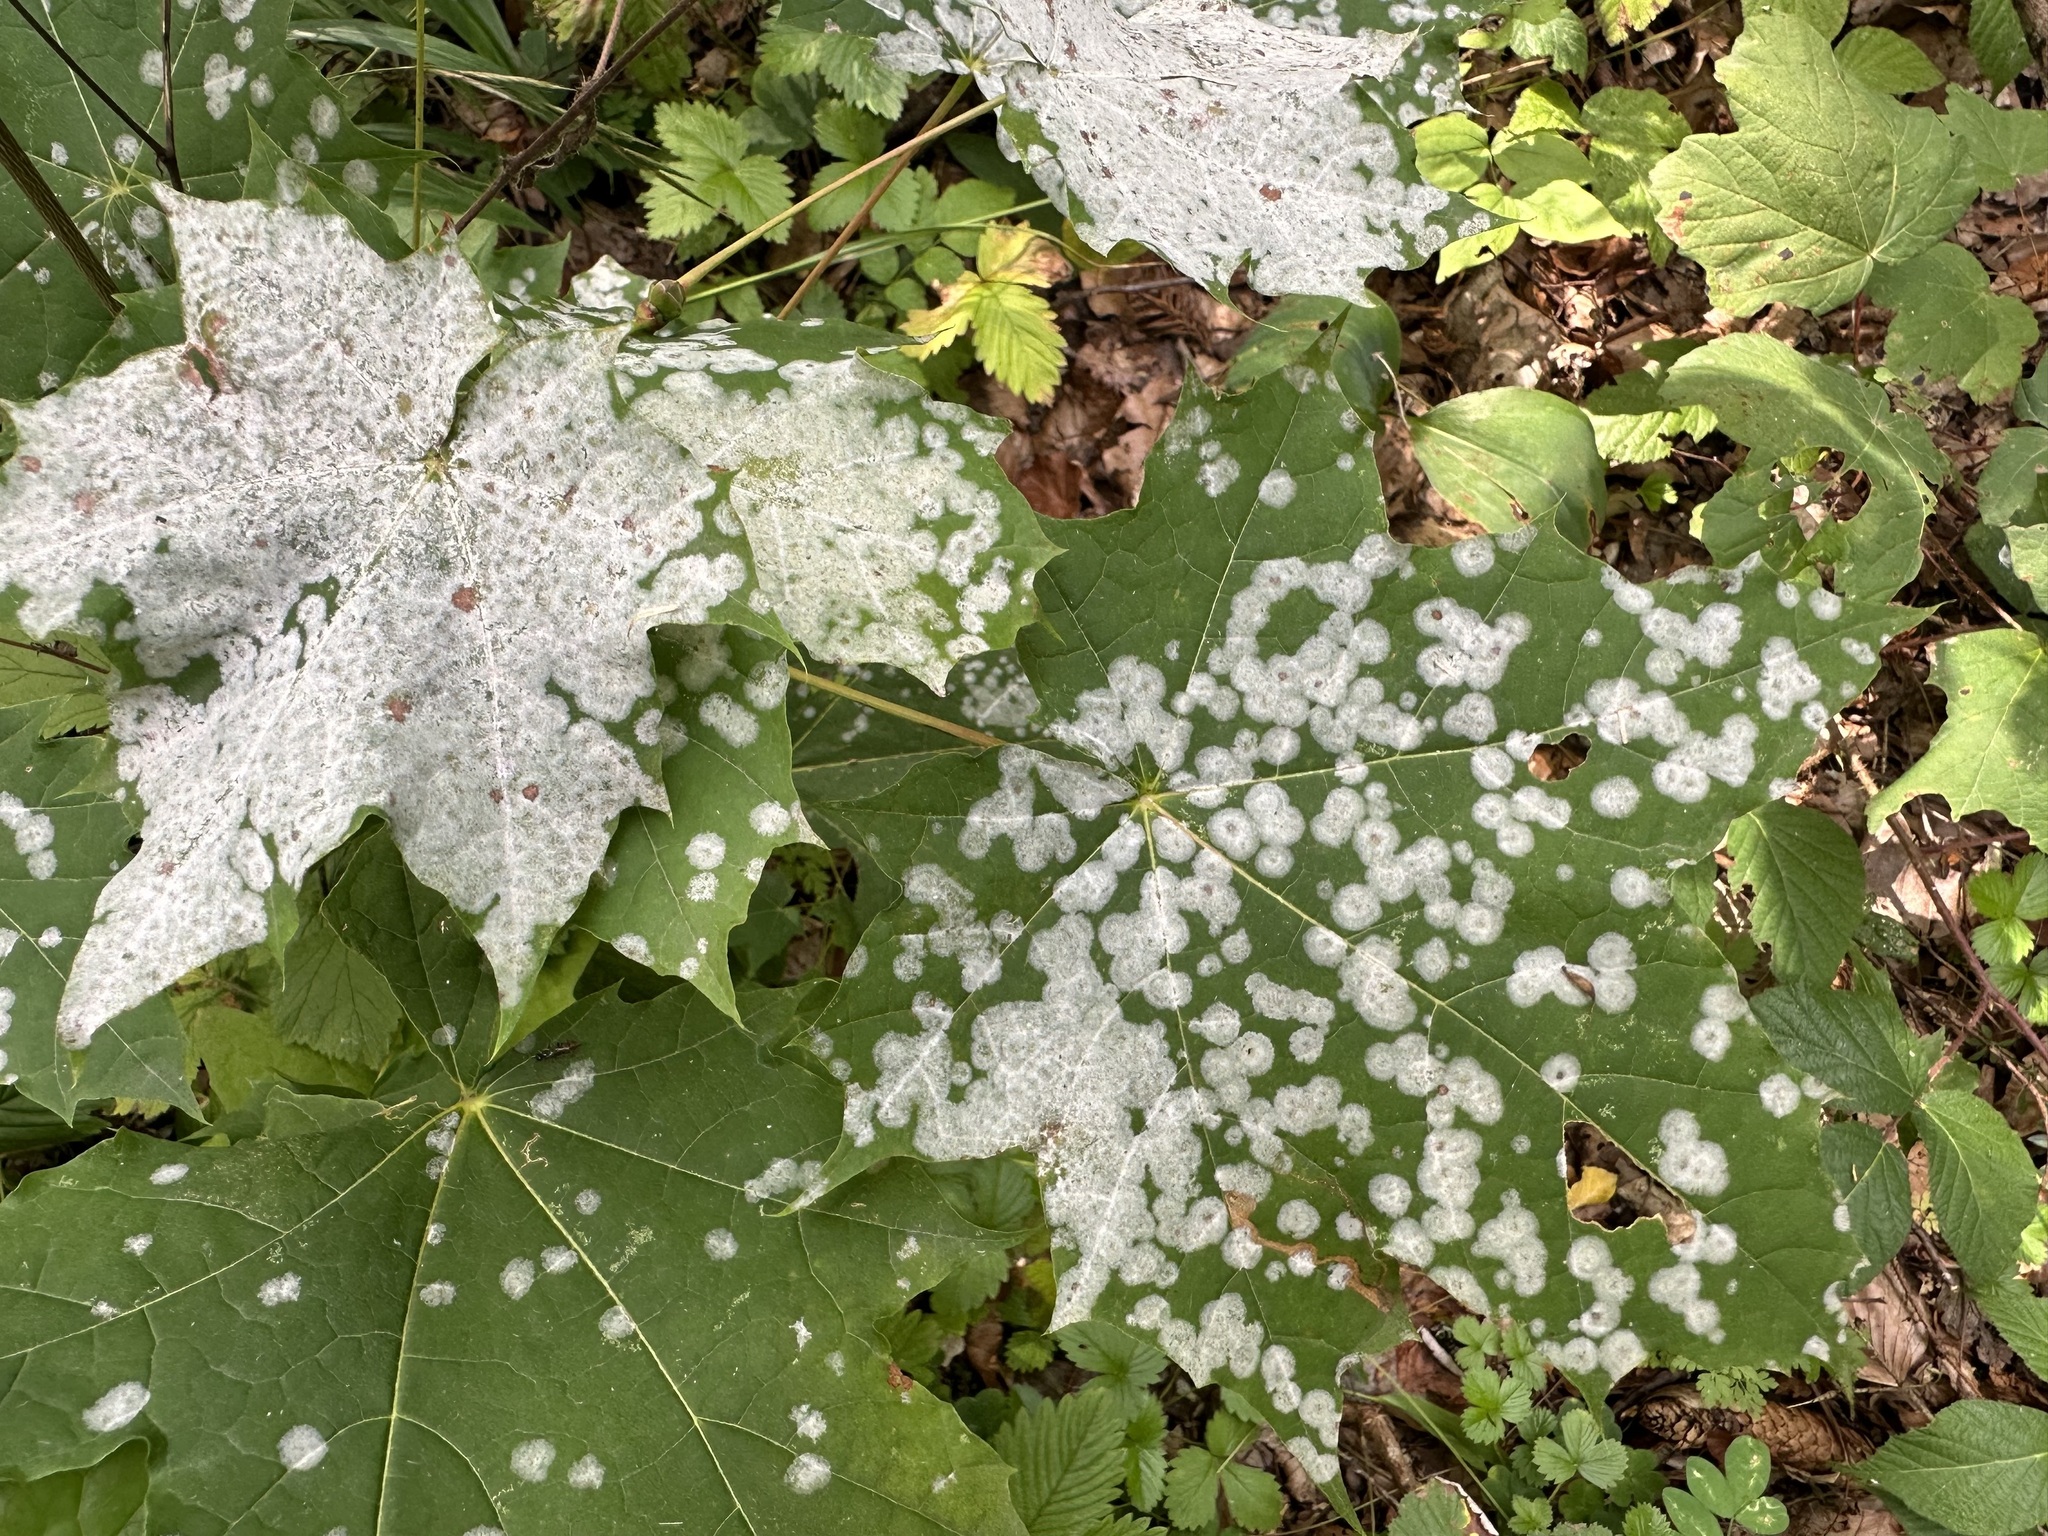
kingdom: Fungi
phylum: Ascomycota
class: Leotiomycetes
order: Helotiales
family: Erysiphaceae
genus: Sawadaea
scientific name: Sawadaea tulasnei
